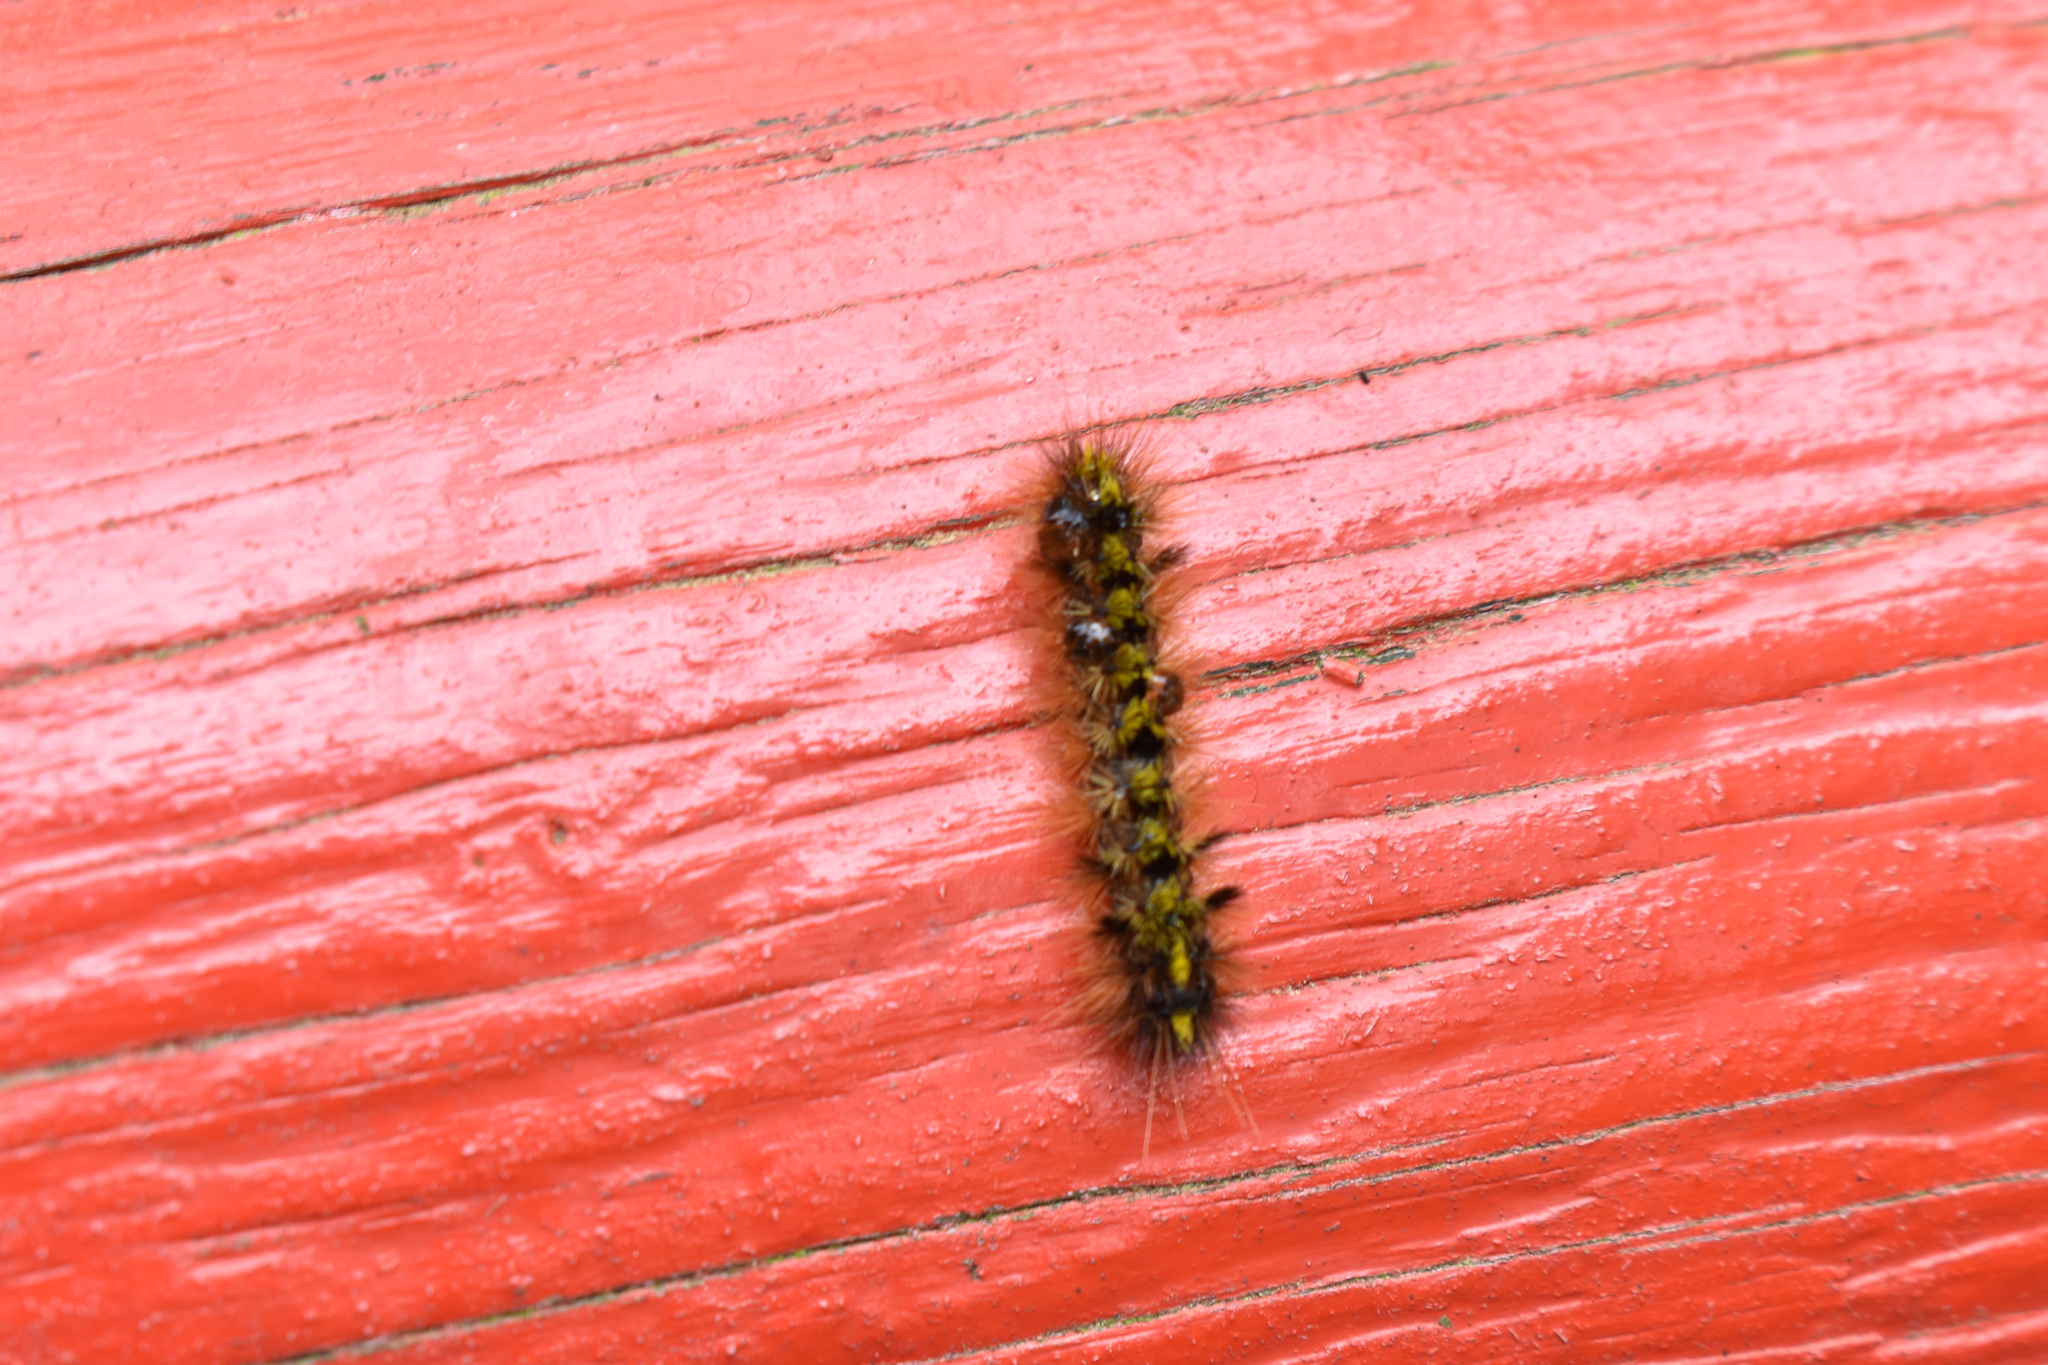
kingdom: Animalia
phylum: Arthropoda
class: Insecta
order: Lepidoptera
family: Erebidae
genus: Lophocampa
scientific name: Lophocampa argentata
